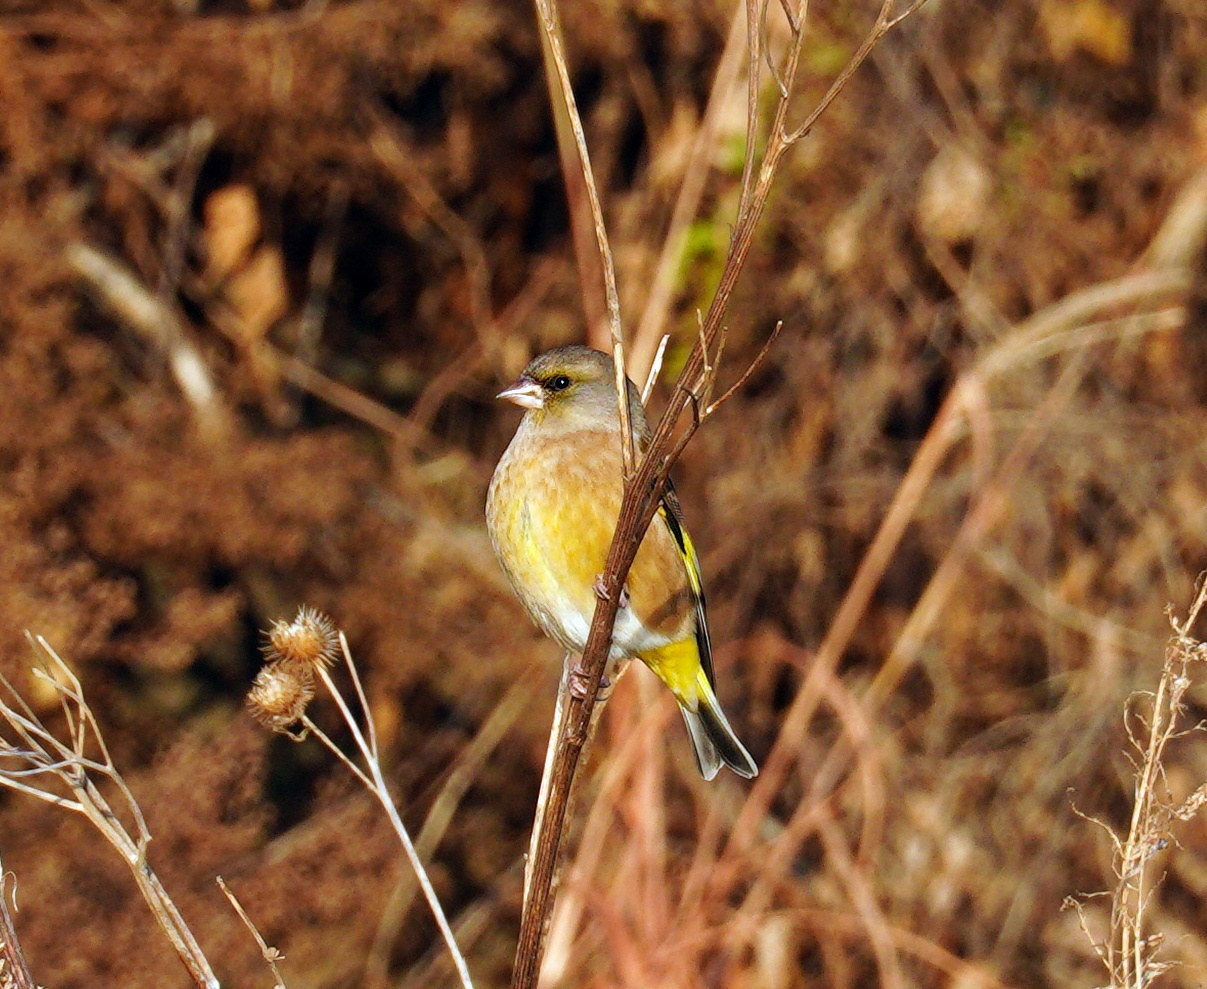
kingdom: Plantae
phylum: Tracheophyta
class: Liliopsida
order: Poales
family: Poaceae
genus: Chloris
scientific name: Chloris sinica
